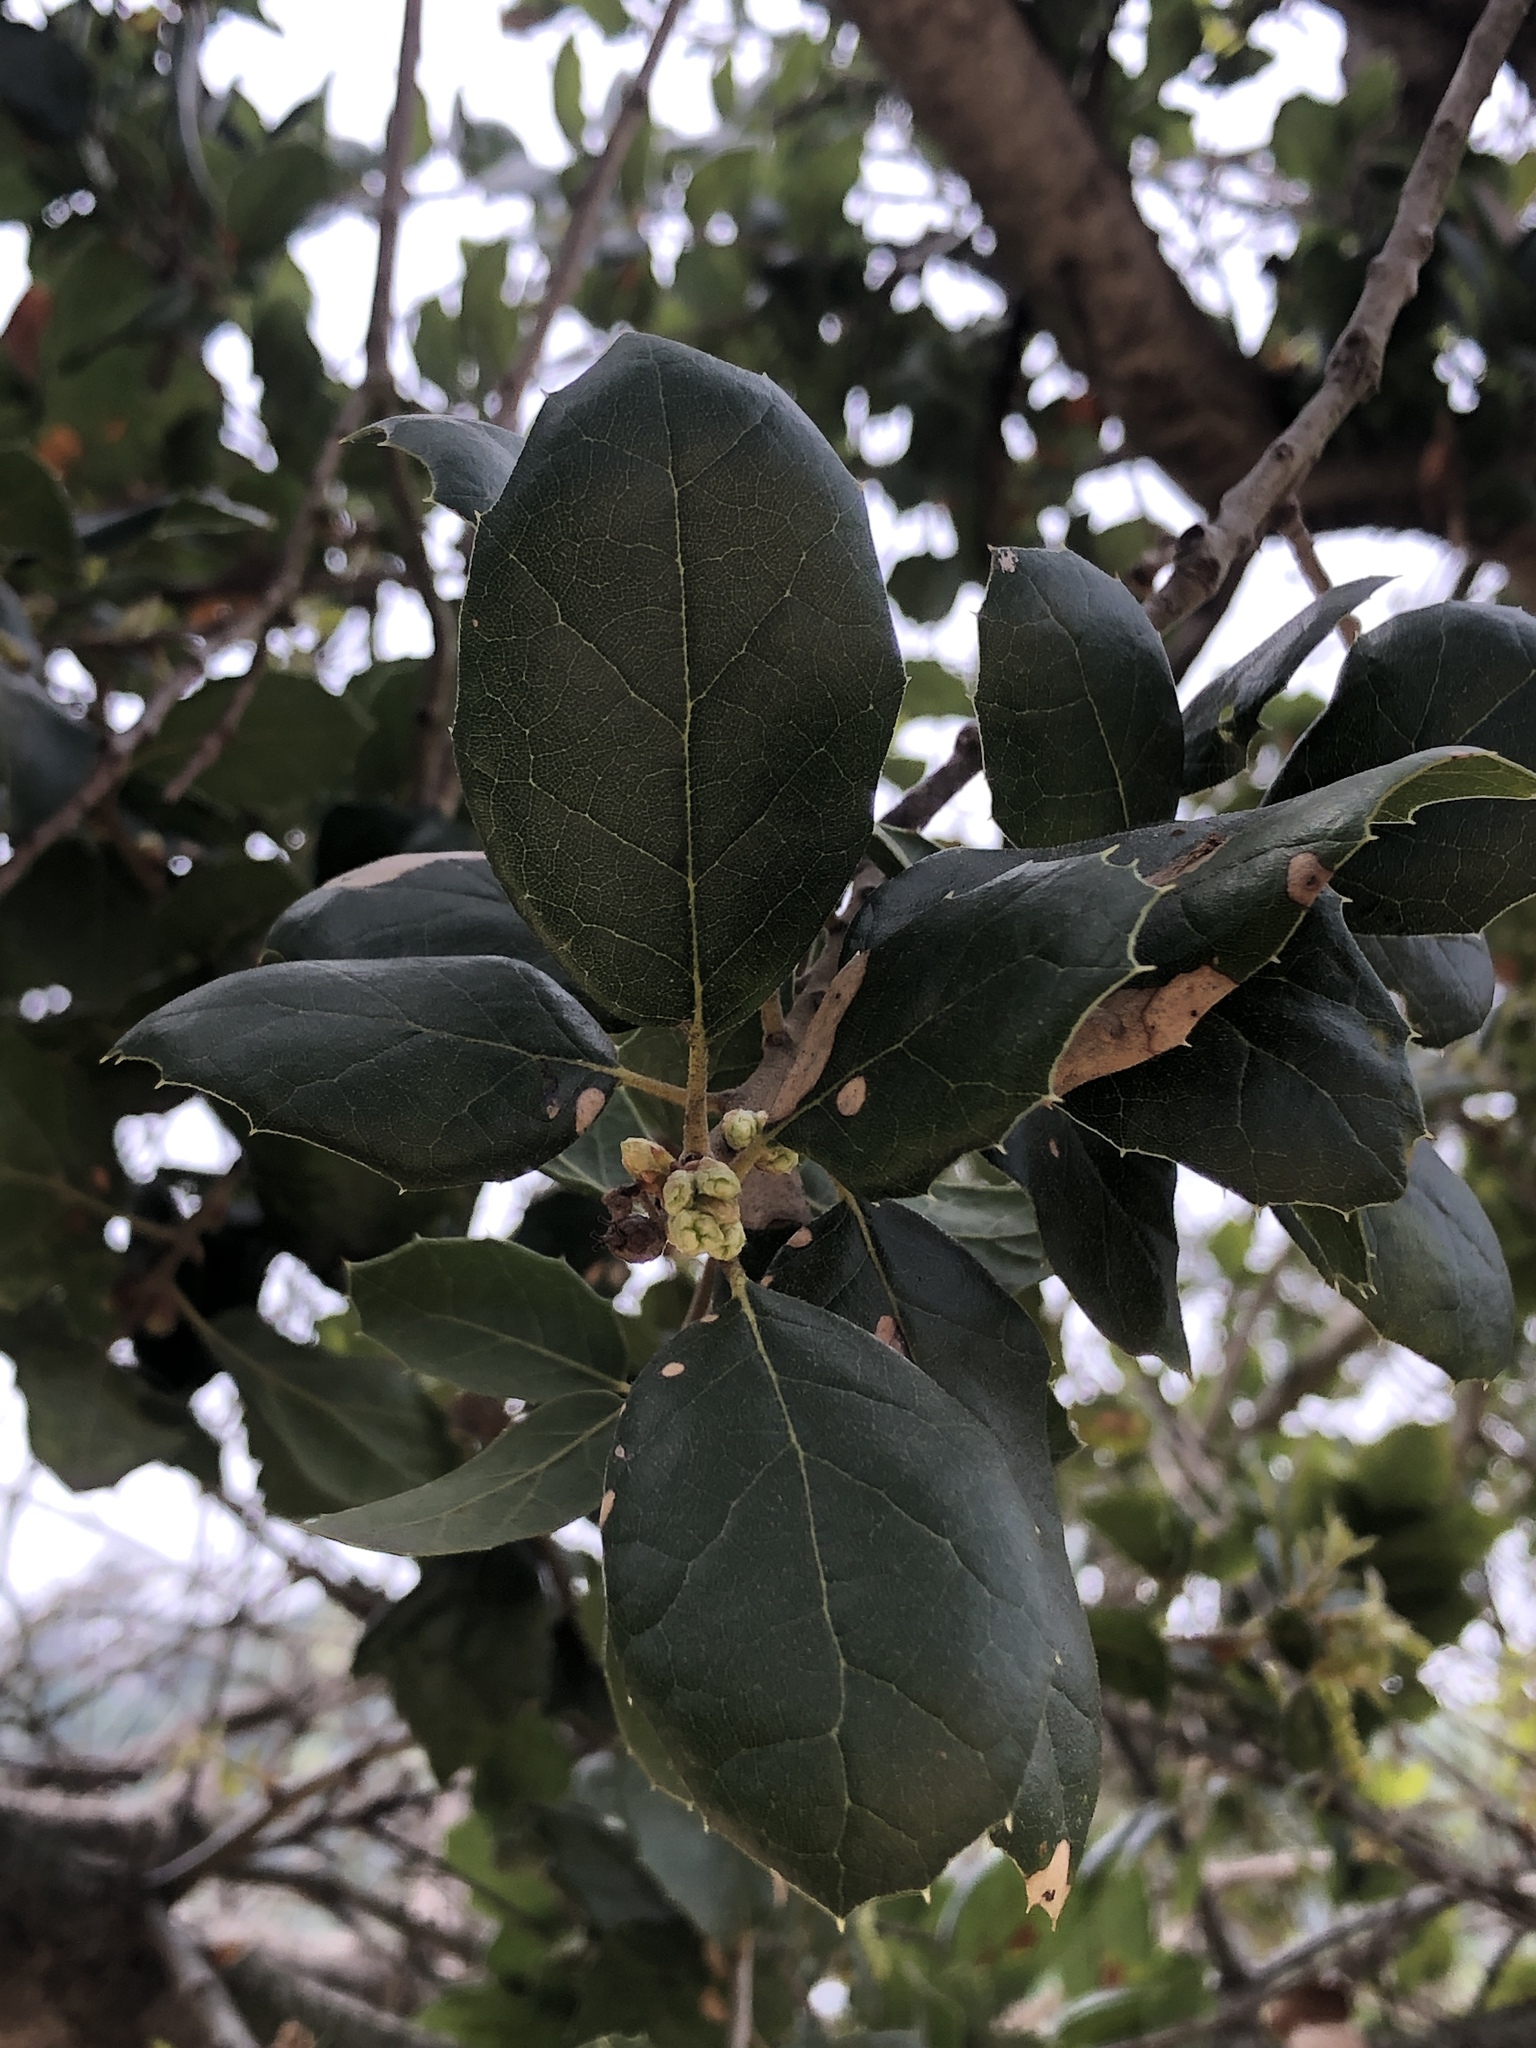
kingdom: Plantae
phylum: Tracheophyta
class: Magnoliopsida
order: Fagales
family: Fagaceae
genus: Quercus
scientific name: Quercus agrifolia
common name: California live oak
